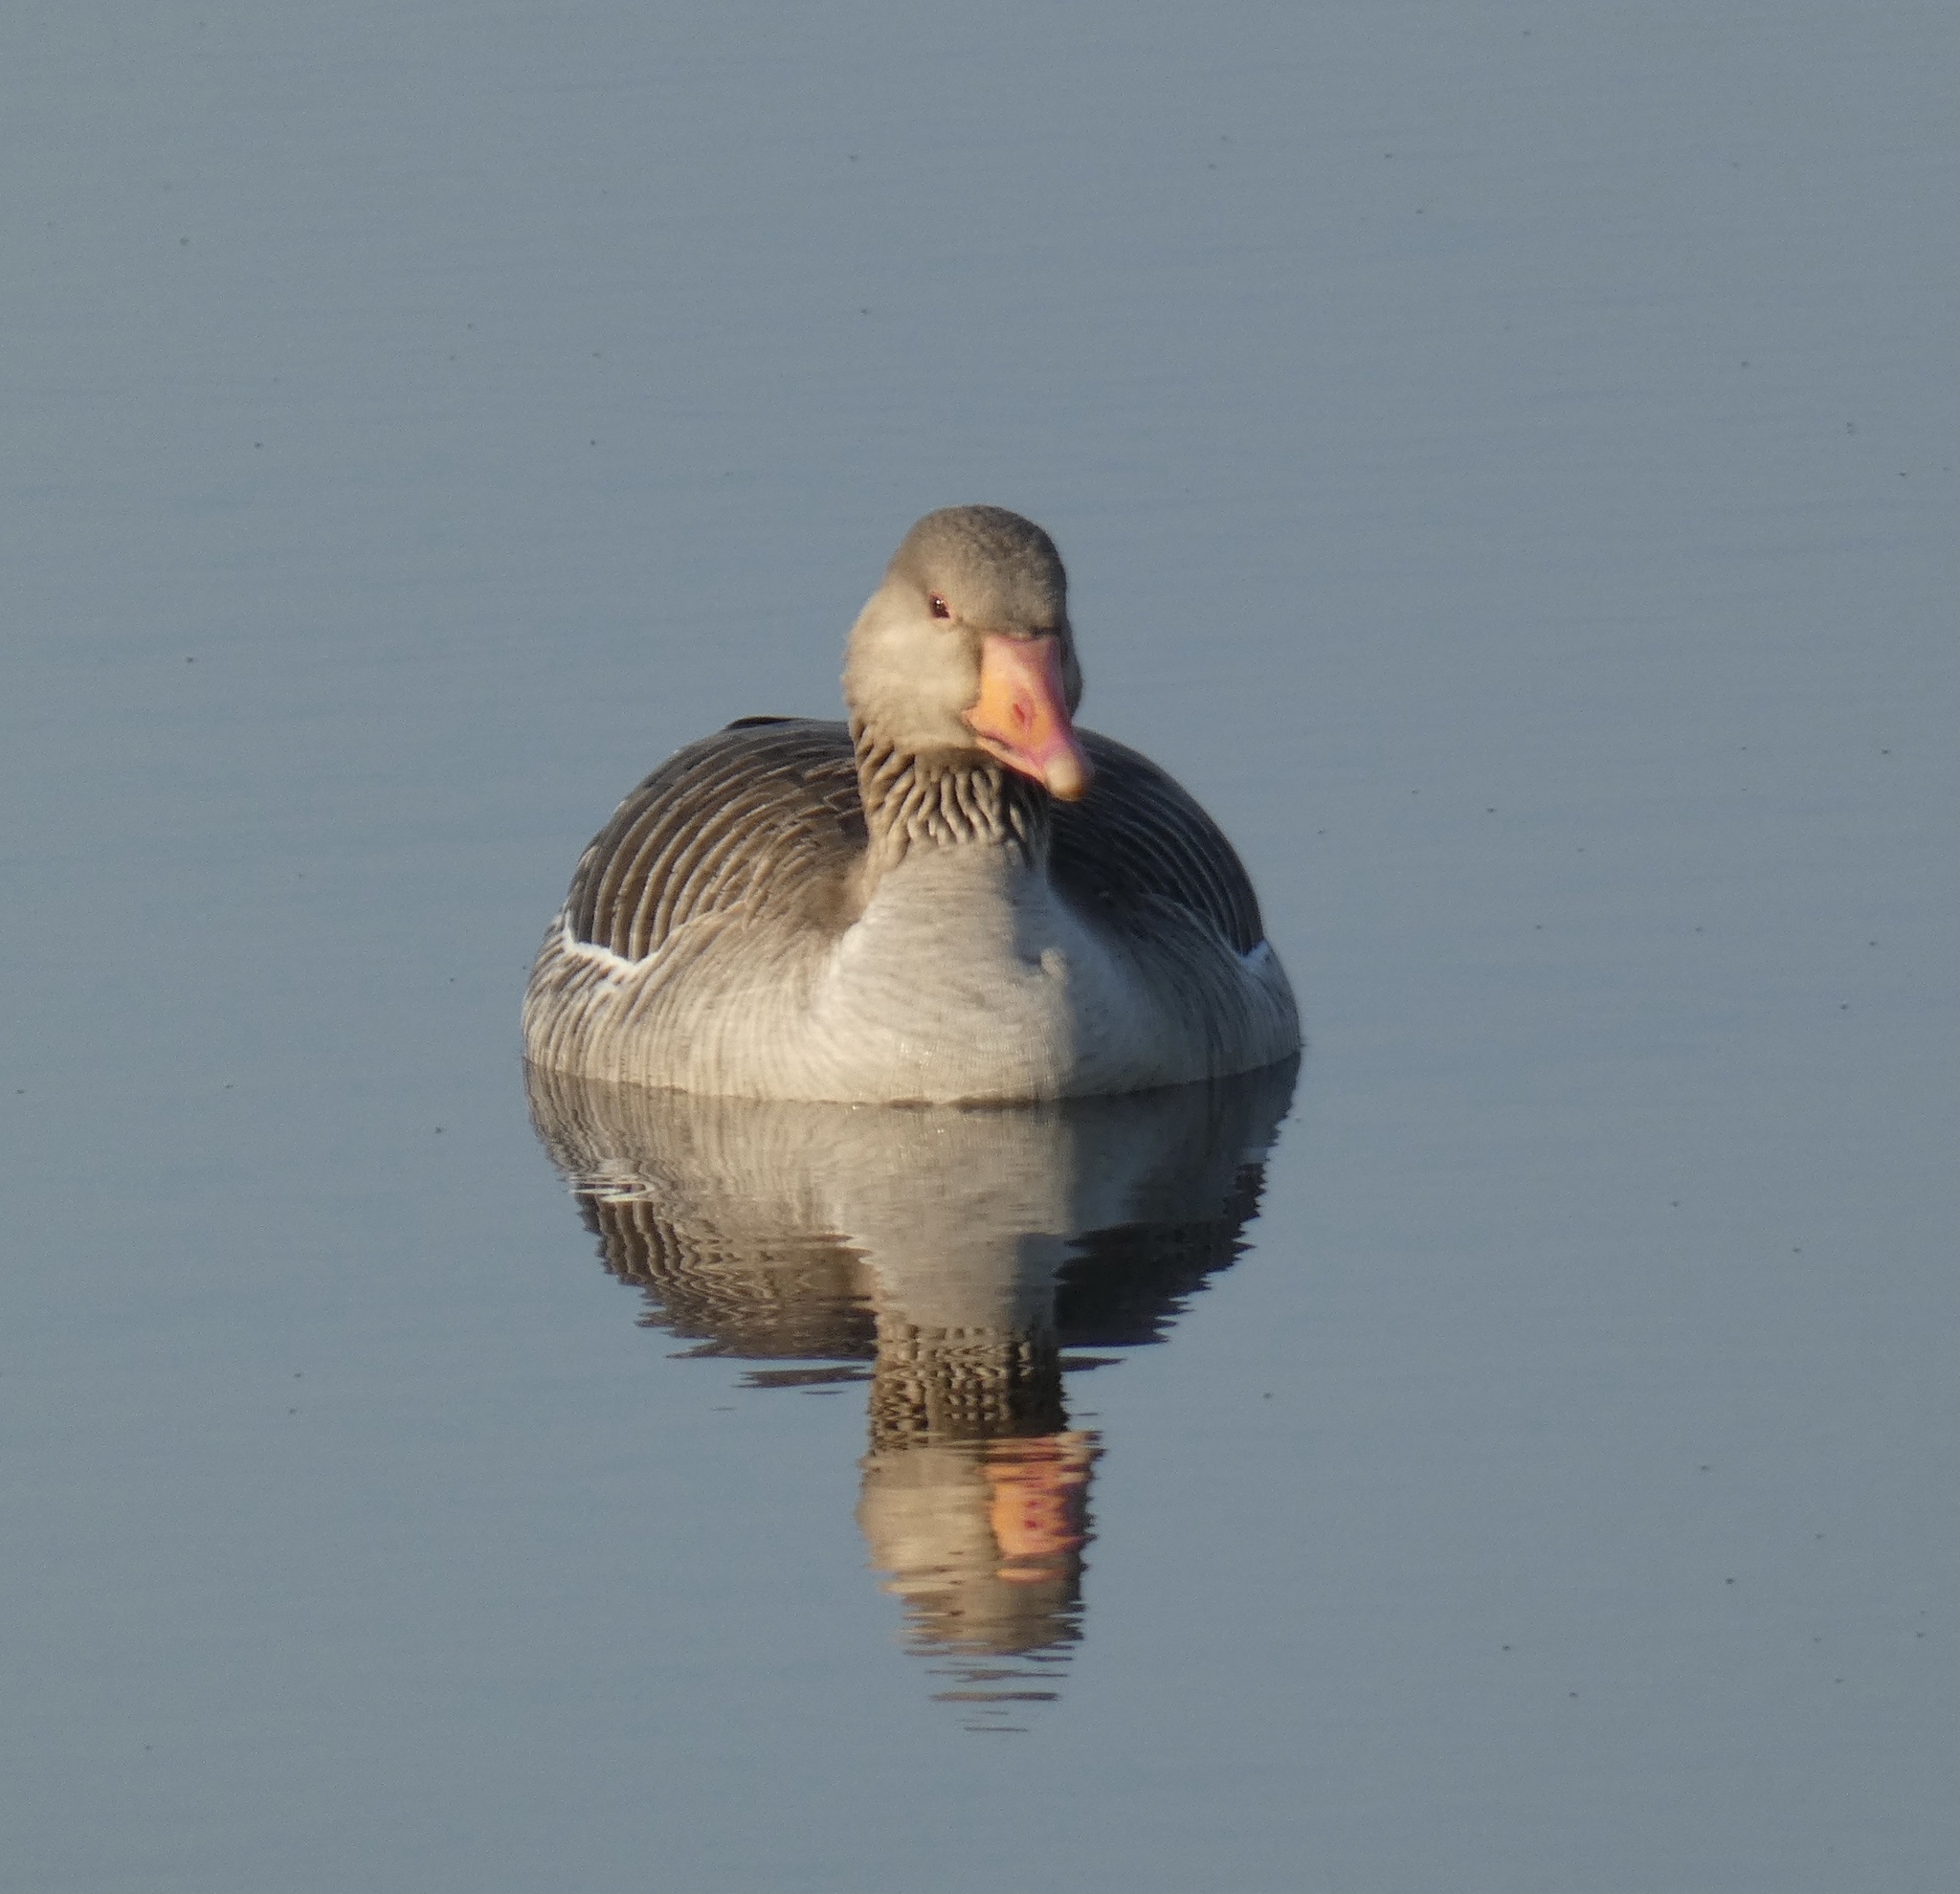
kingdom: Animalia
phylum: Chordata
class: Aves
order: Anseriformes
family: Anatidae
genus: Anser
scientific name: Anser anser
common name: Greylag goose
